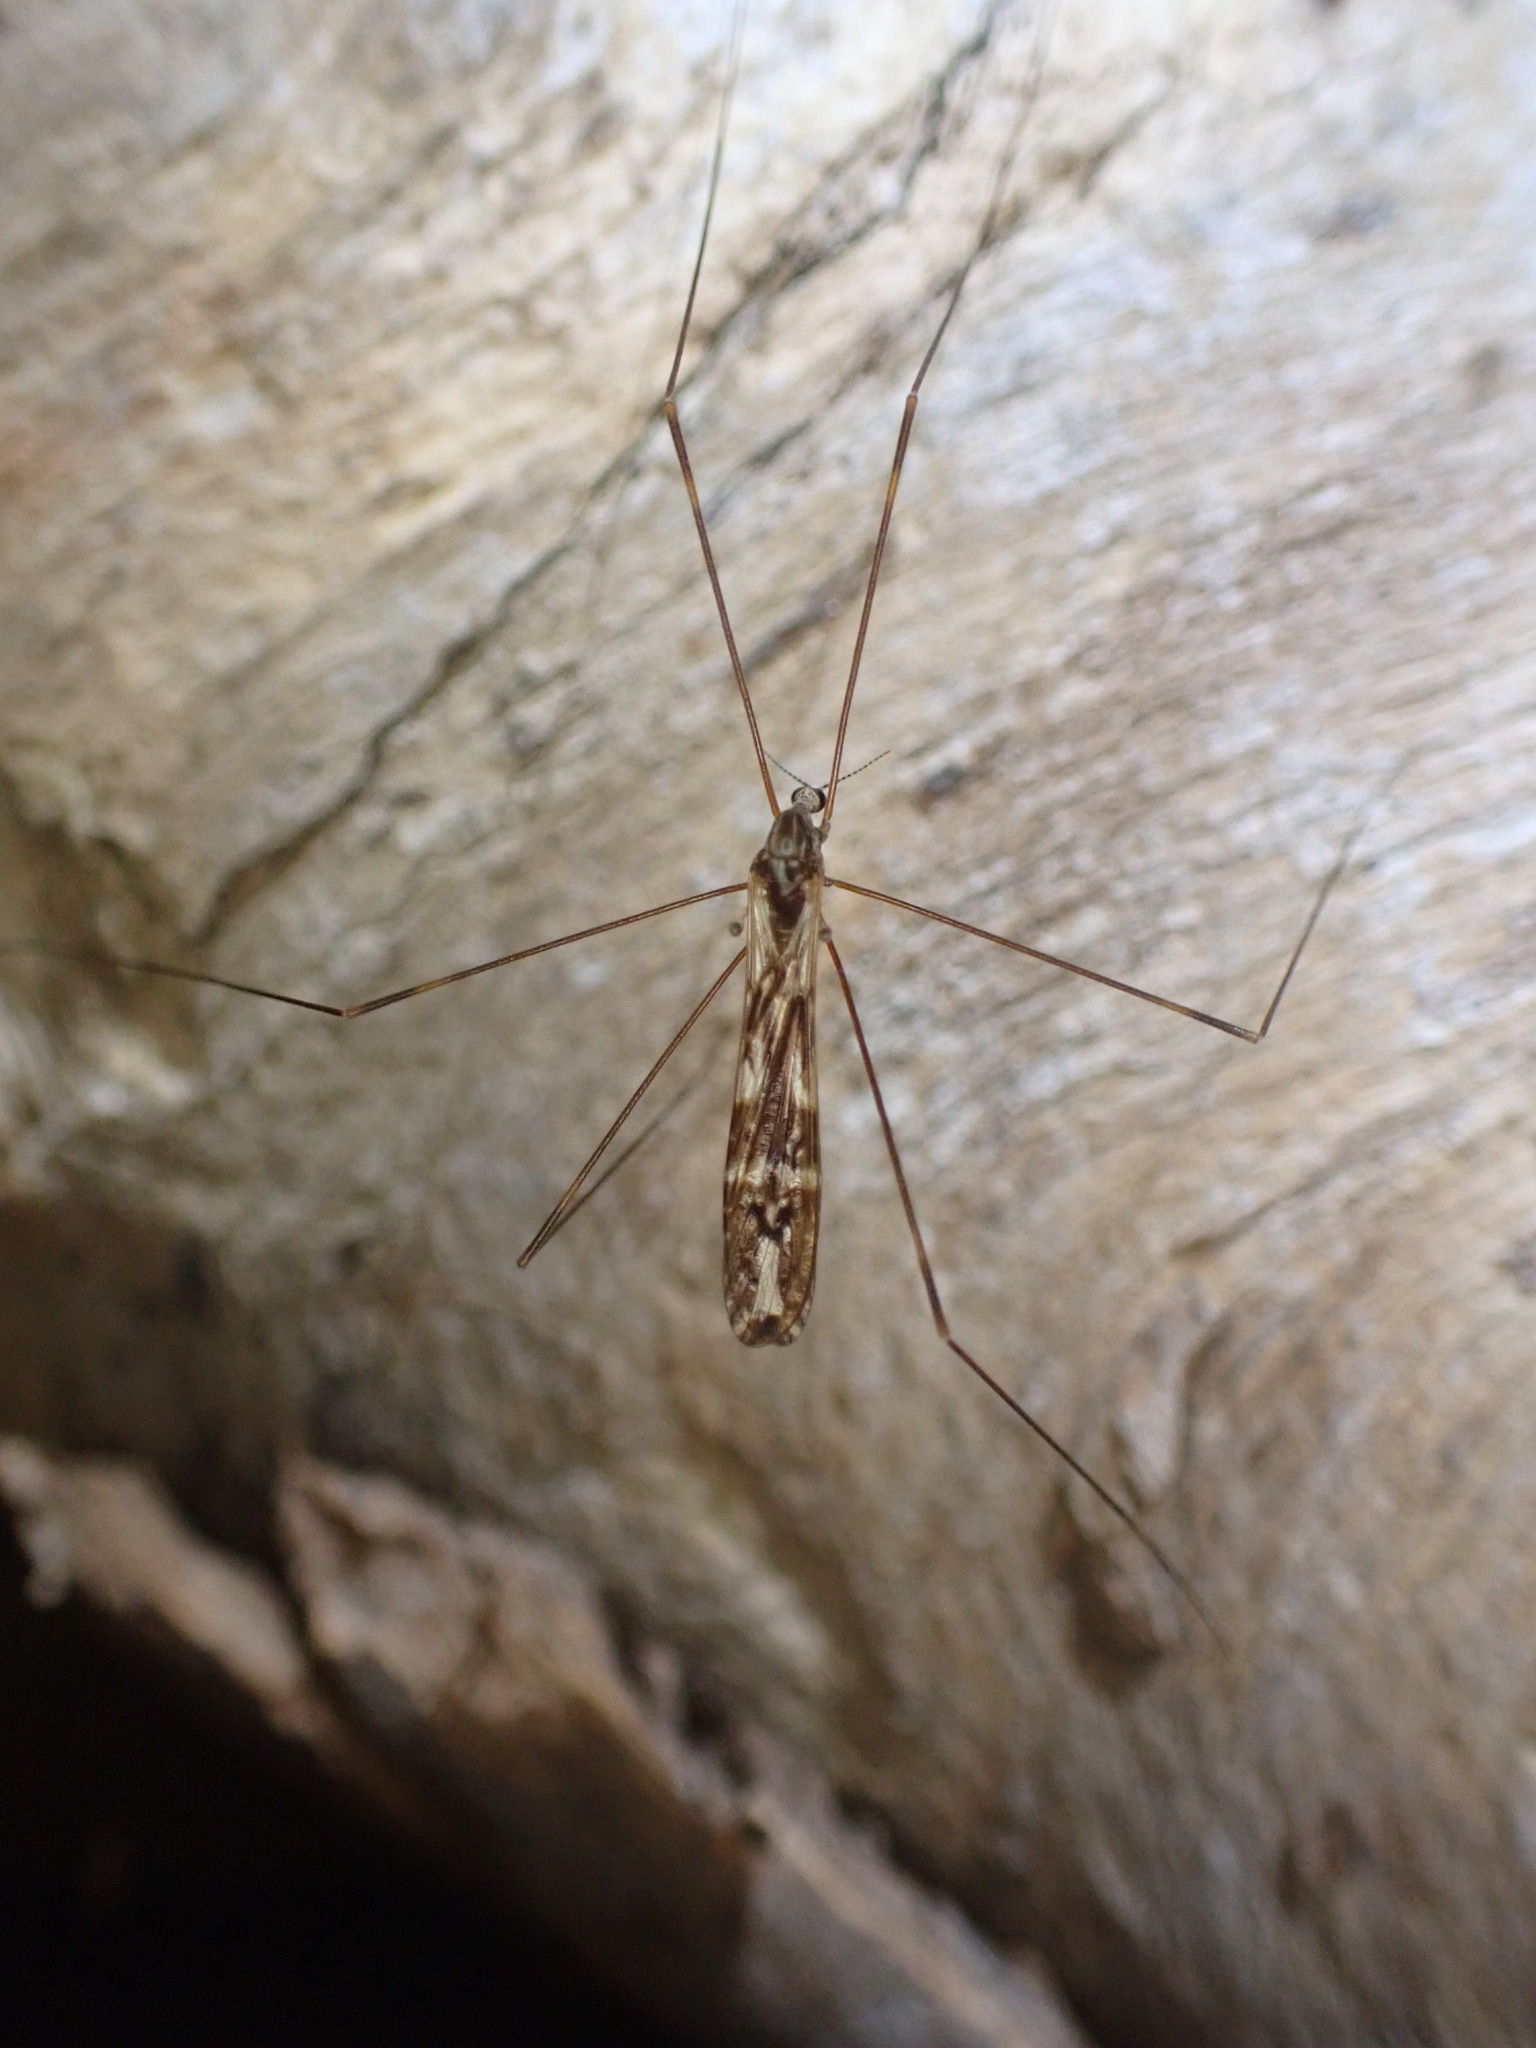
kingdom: Animalia
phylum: Arthropoda
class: Insecta
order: Diptera
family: Limoniidae
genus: Discobola
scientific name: Discobola dohrni
